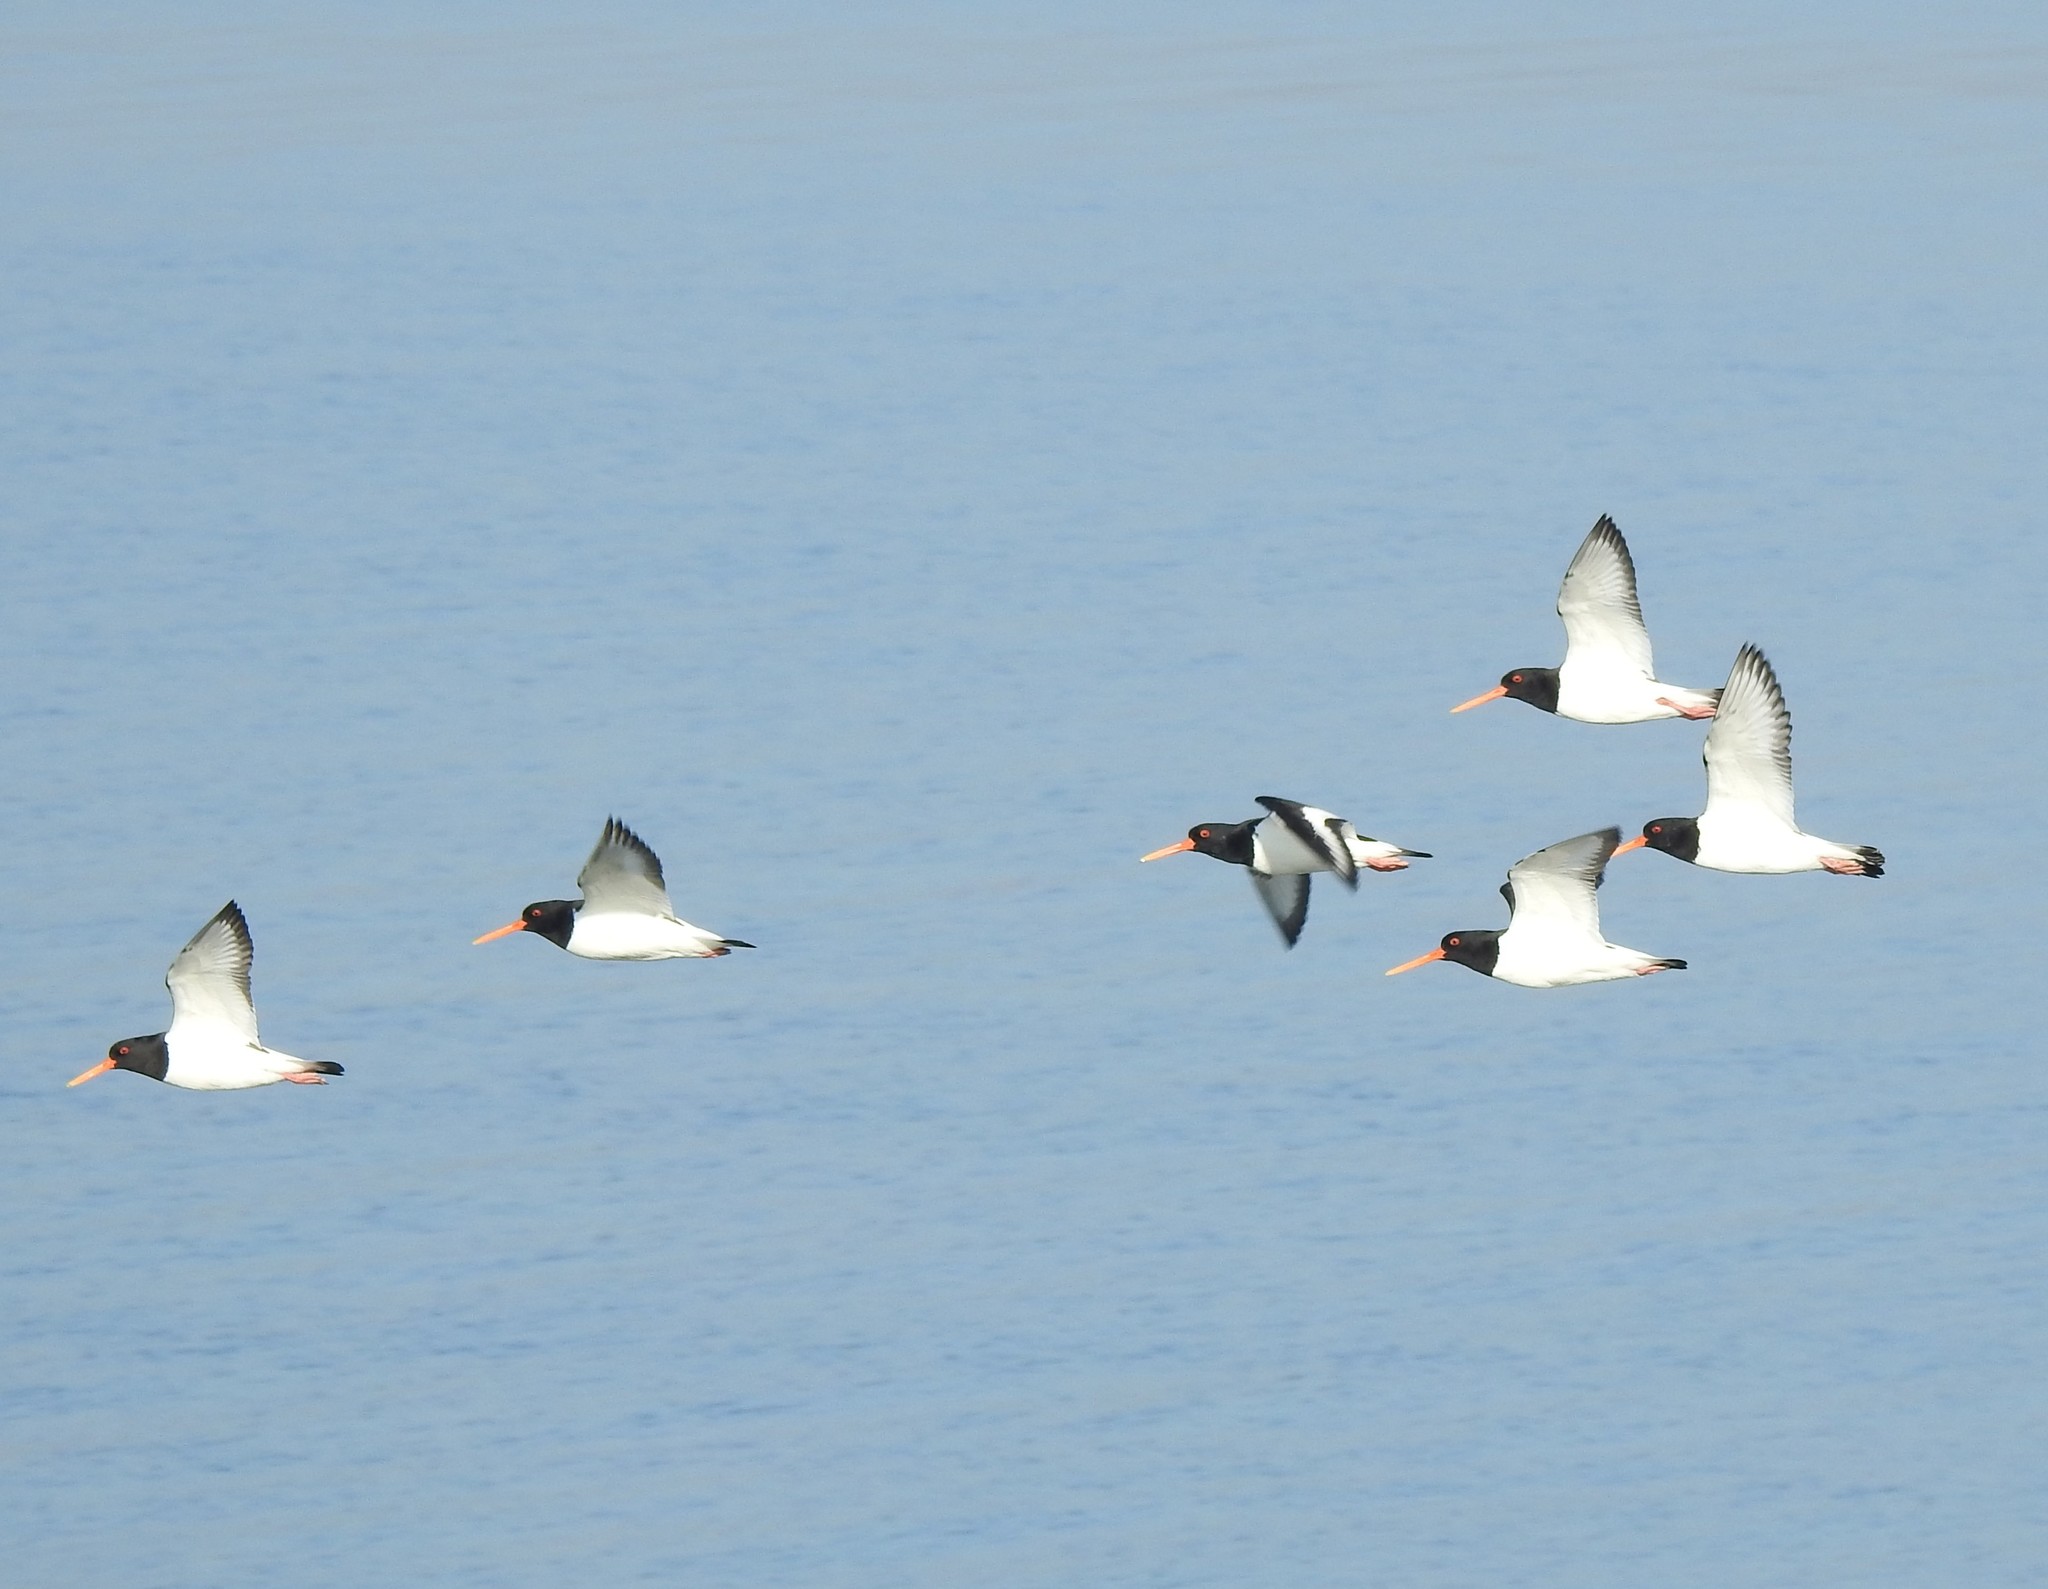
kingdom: Animalia
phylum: Chordata
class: Aves
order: Charadriiformes
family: Haematopodidae
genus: Haematopus
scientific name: Haematopus ostralegus
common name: Eurasian oystercatcher
